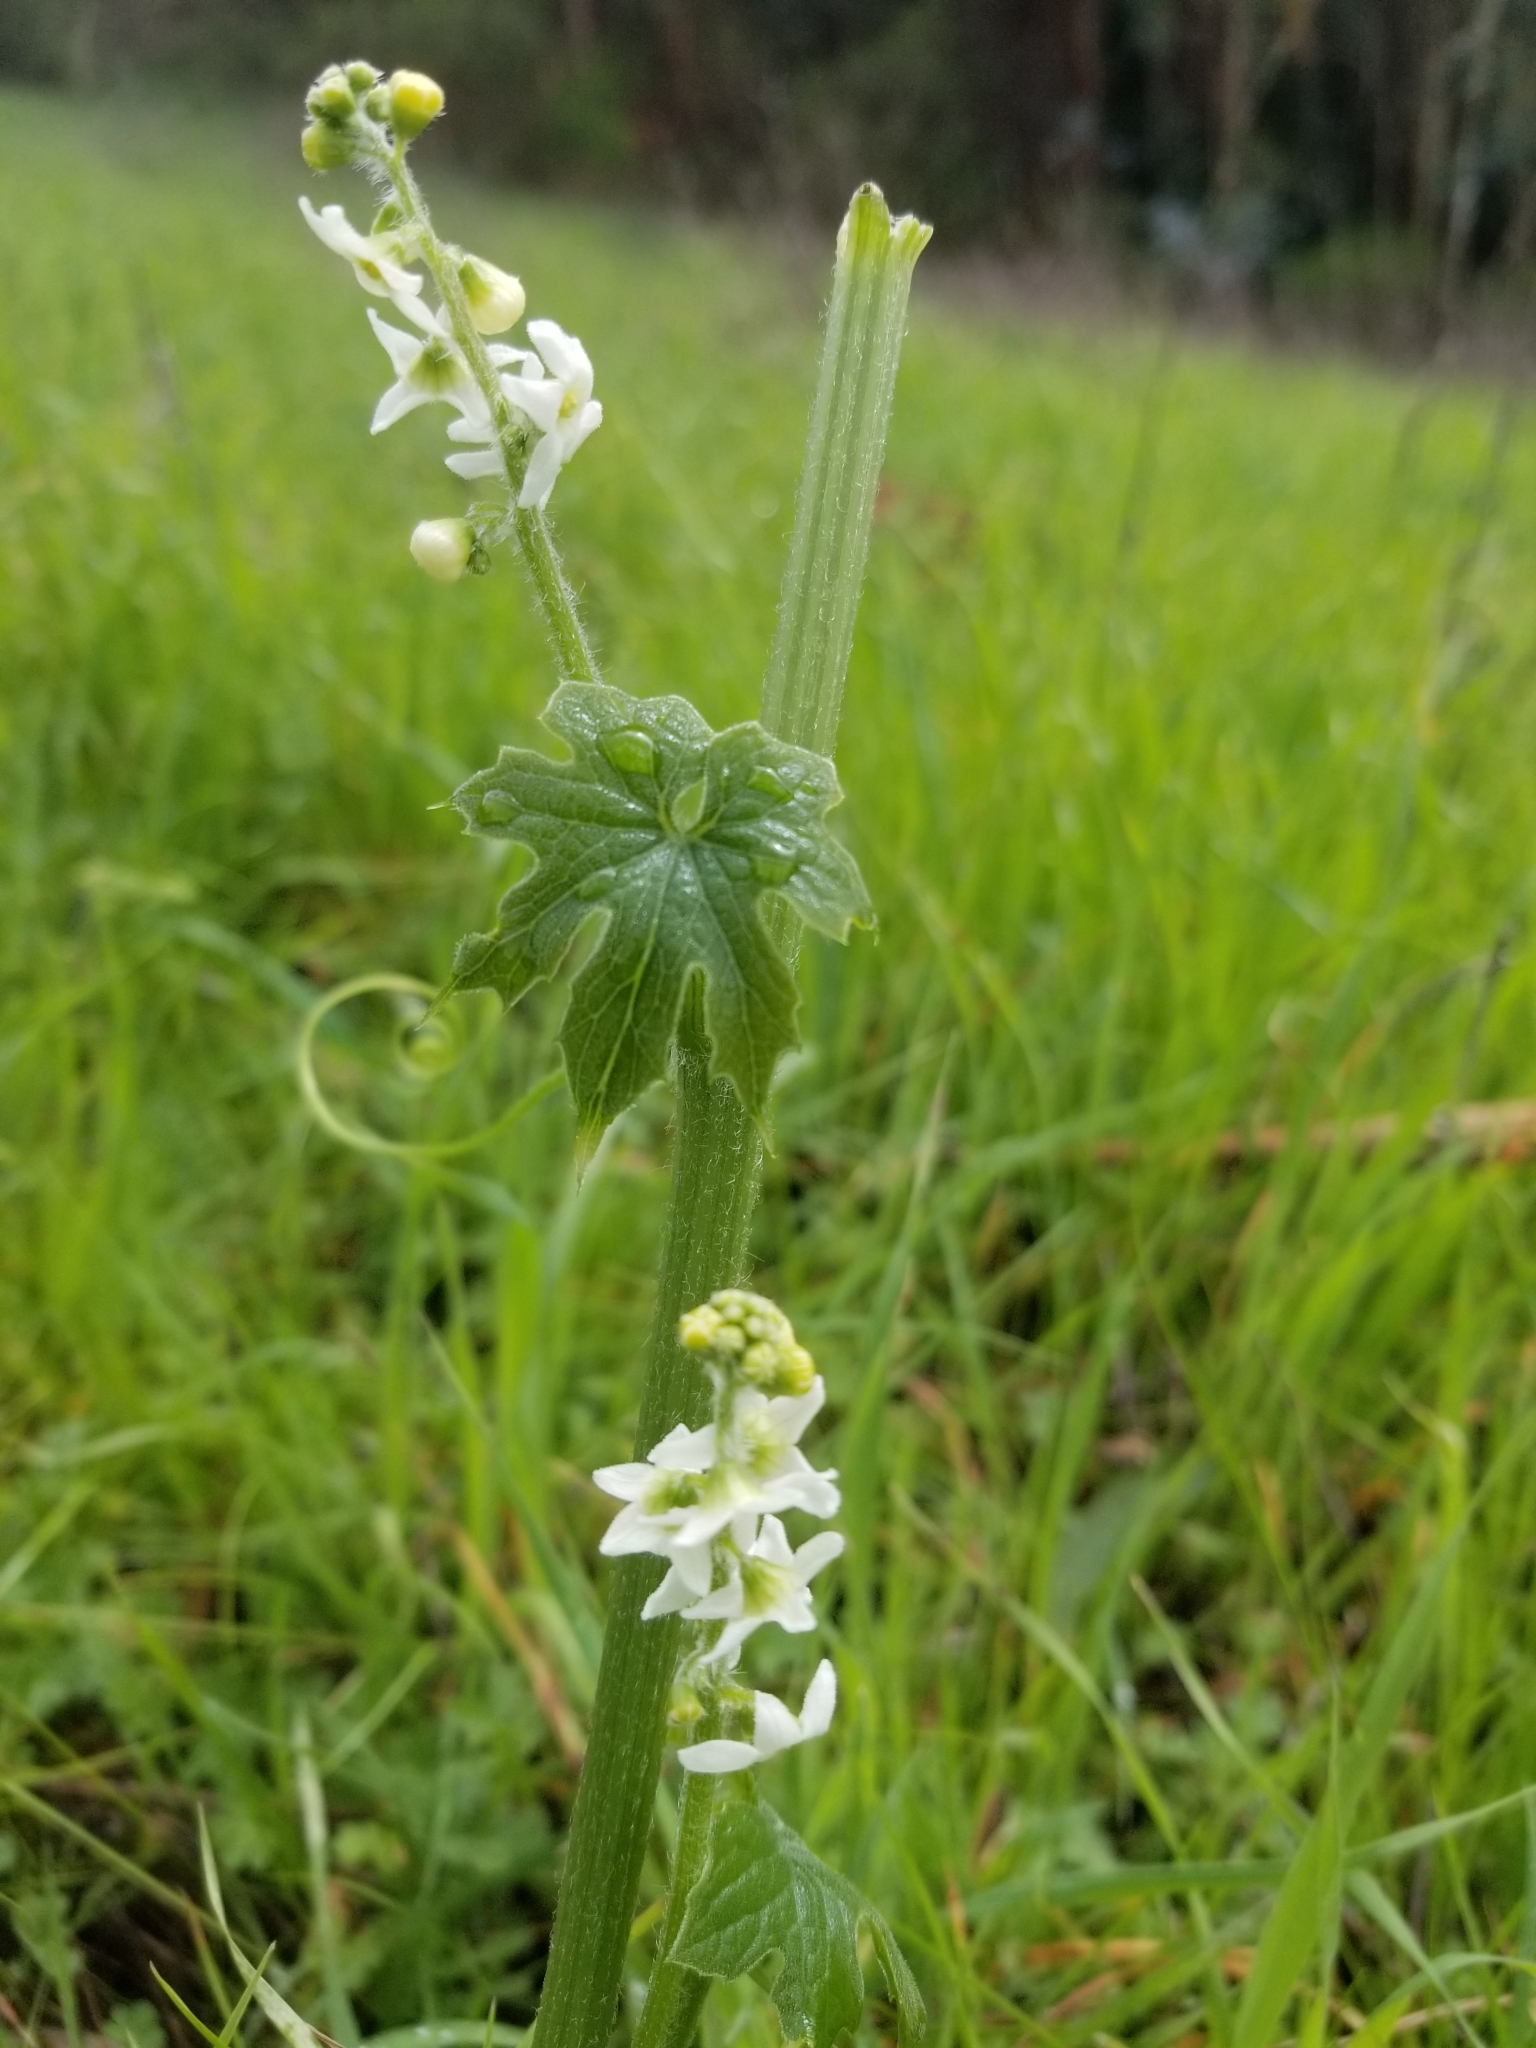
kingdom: Plantae
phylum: Tracheophyta
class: Magnoliopsida
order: Cucurbitales
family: Cucurbitaceae
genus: Marah
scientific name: Marah oregana
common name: Coastal manroot
